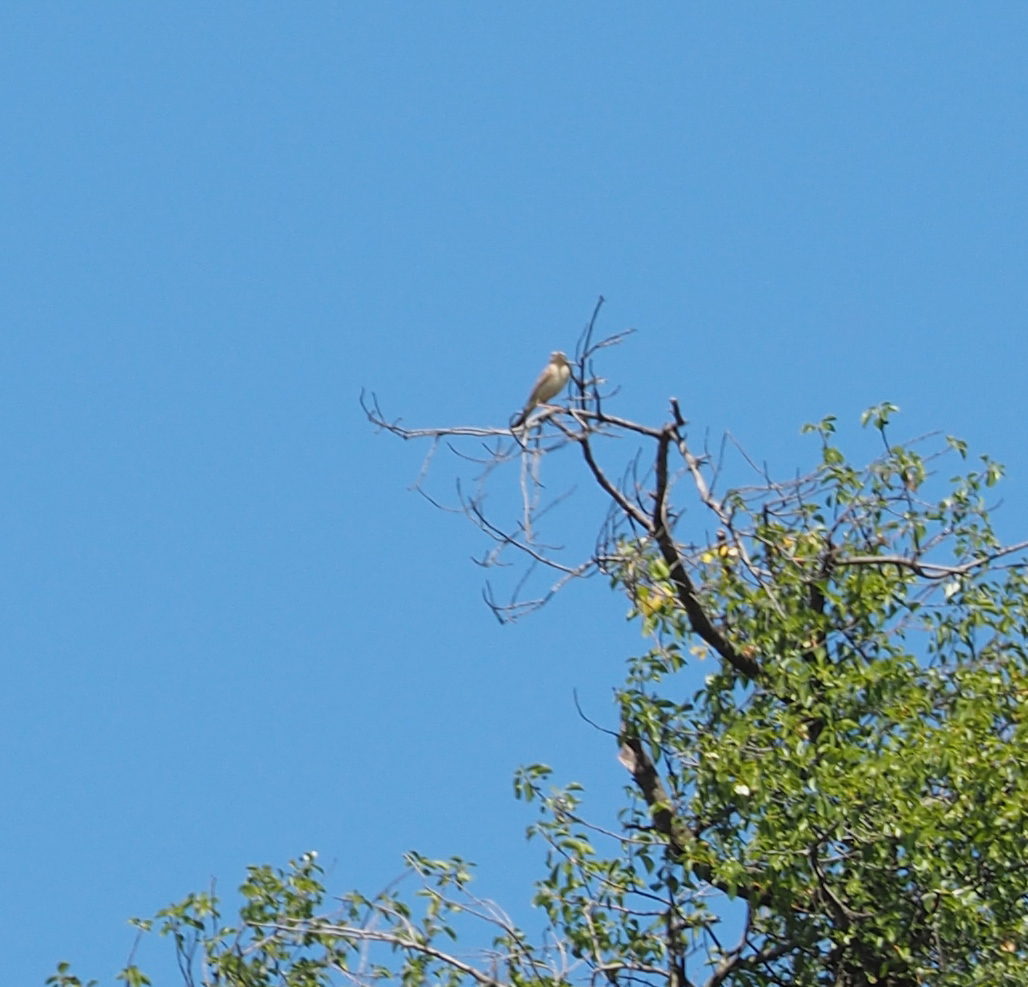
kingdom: Animalia
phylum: Chordata
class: Aves
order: Passeriformes
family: Motacillidae
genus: Anthus
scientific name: Anthus campestris
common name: Tawny pipit
